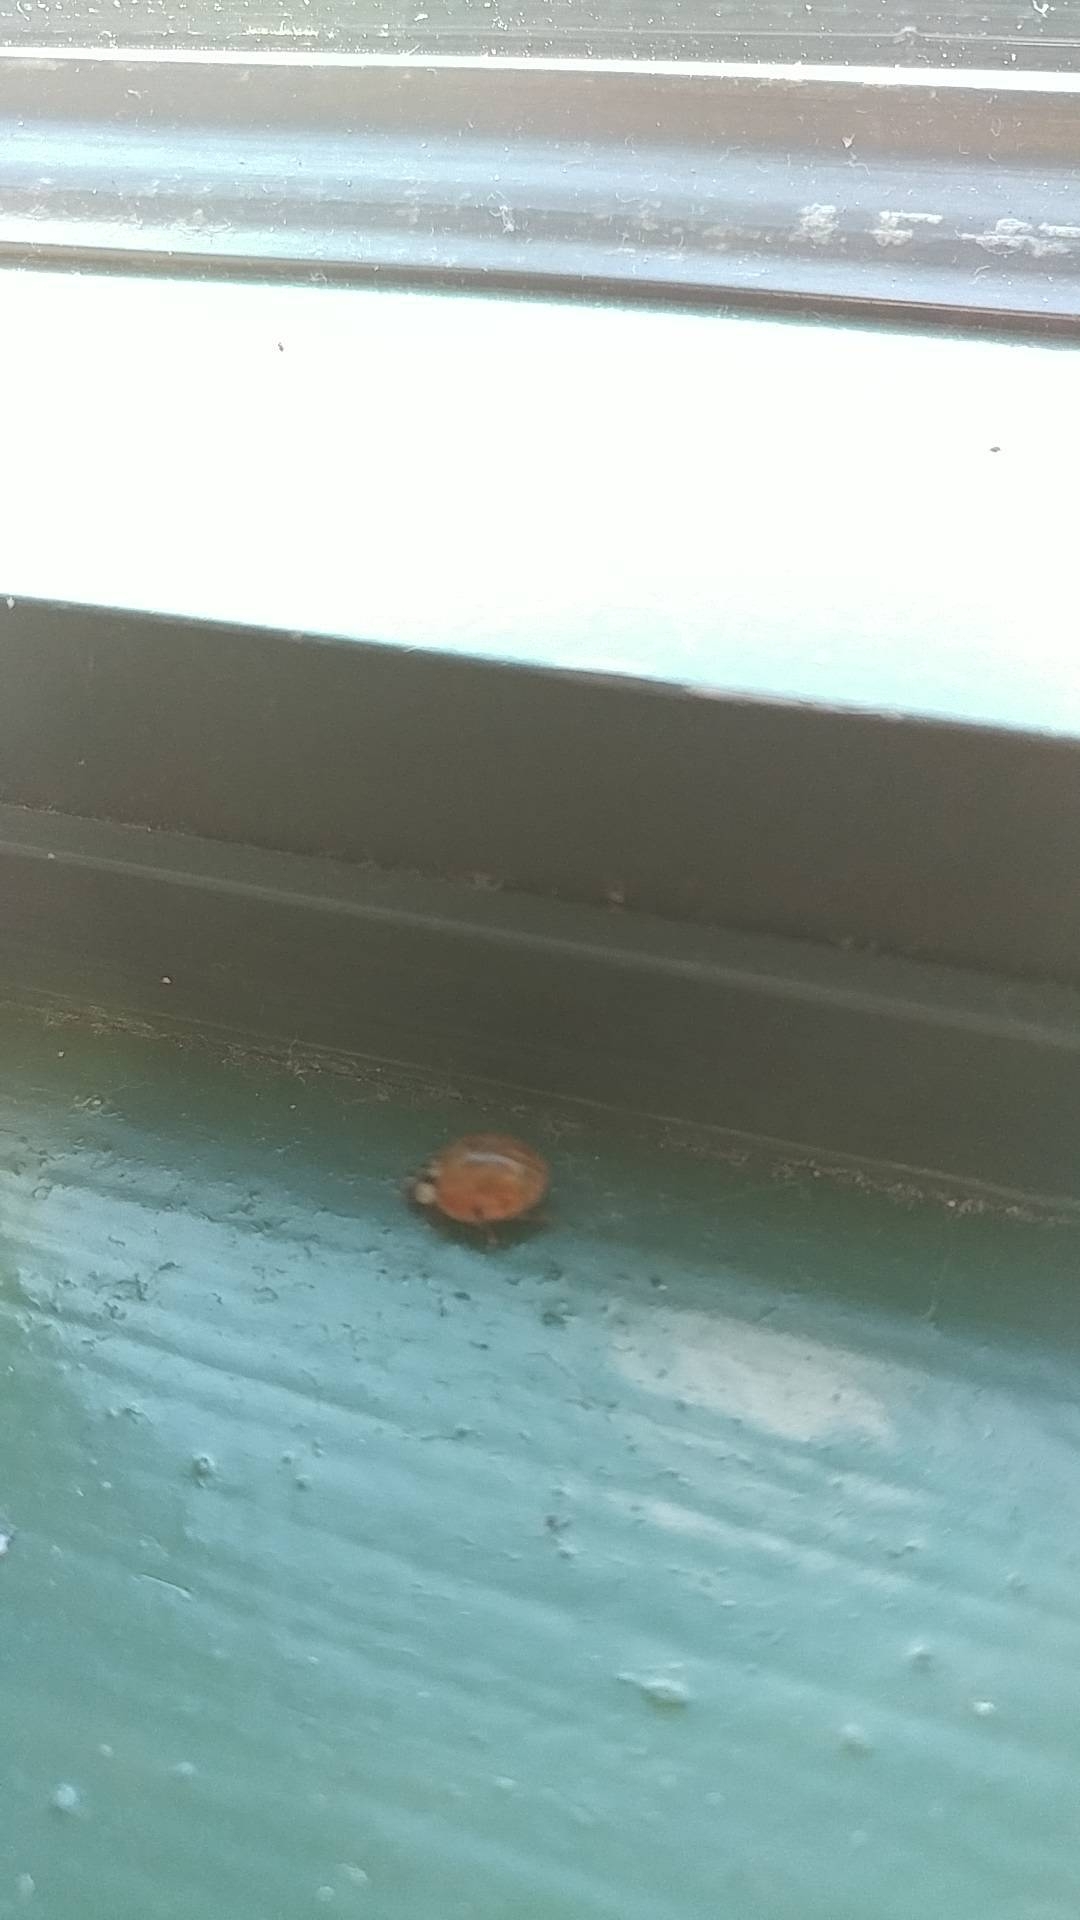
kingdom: Animalia
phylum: Arthropoda
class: Insecta
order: Coleoptera
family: Coccinellidae
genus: Harmonia
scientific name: Harmonia axyridis
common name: Harlequin ladybird
